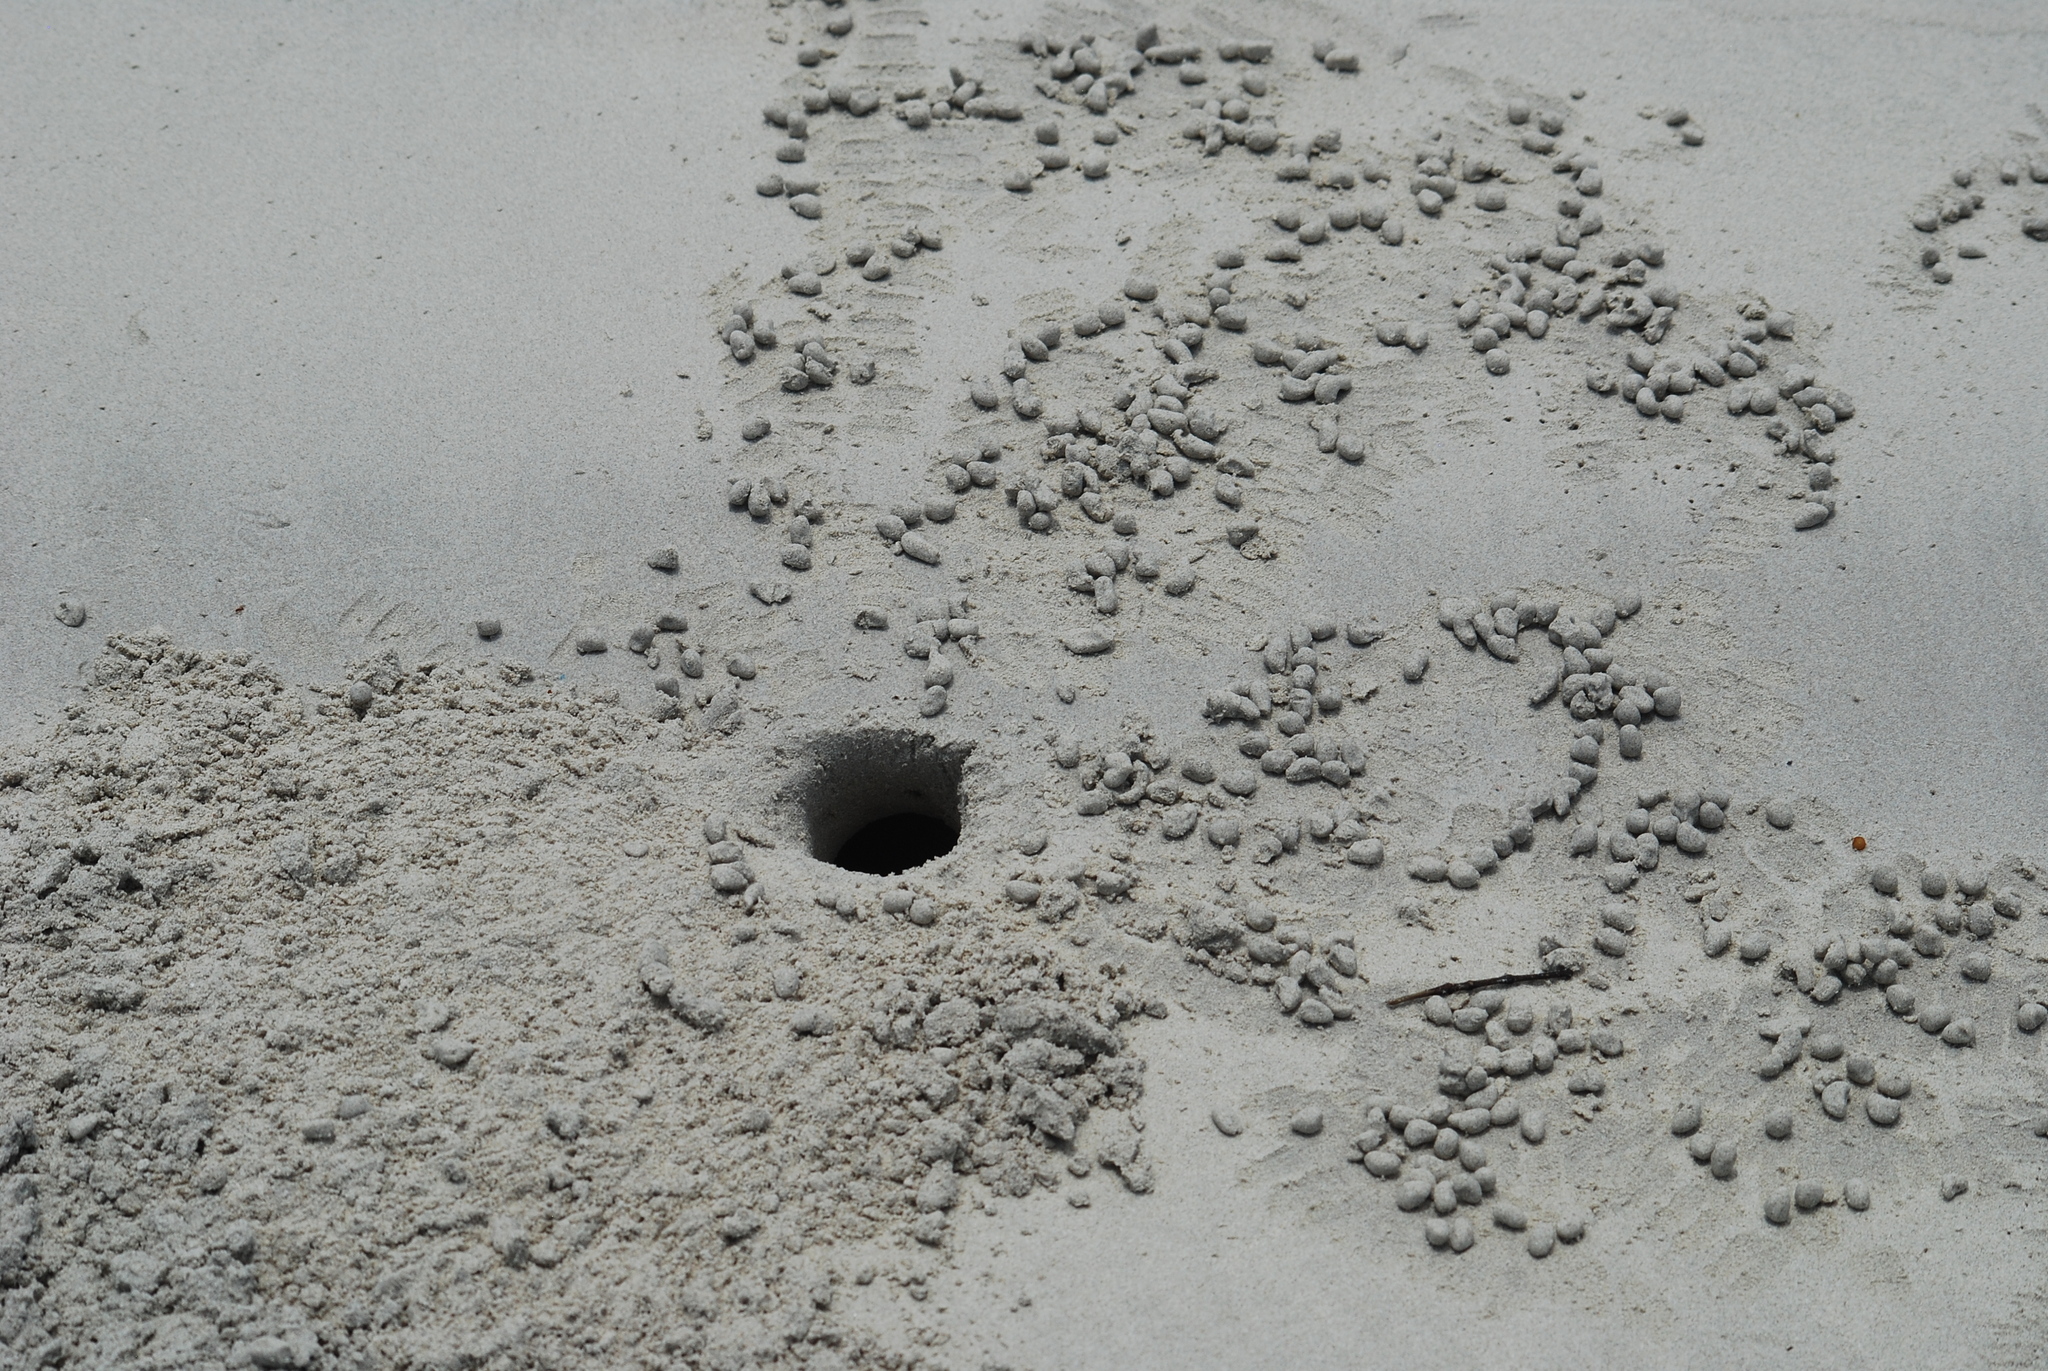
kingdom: Animalia
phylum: Arthropoda
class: Malacostraca
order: Decapoda
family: Ocypodidae
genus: Ocypode
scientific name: Ocypode gaudichaudii
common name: Pacific ghost crab
